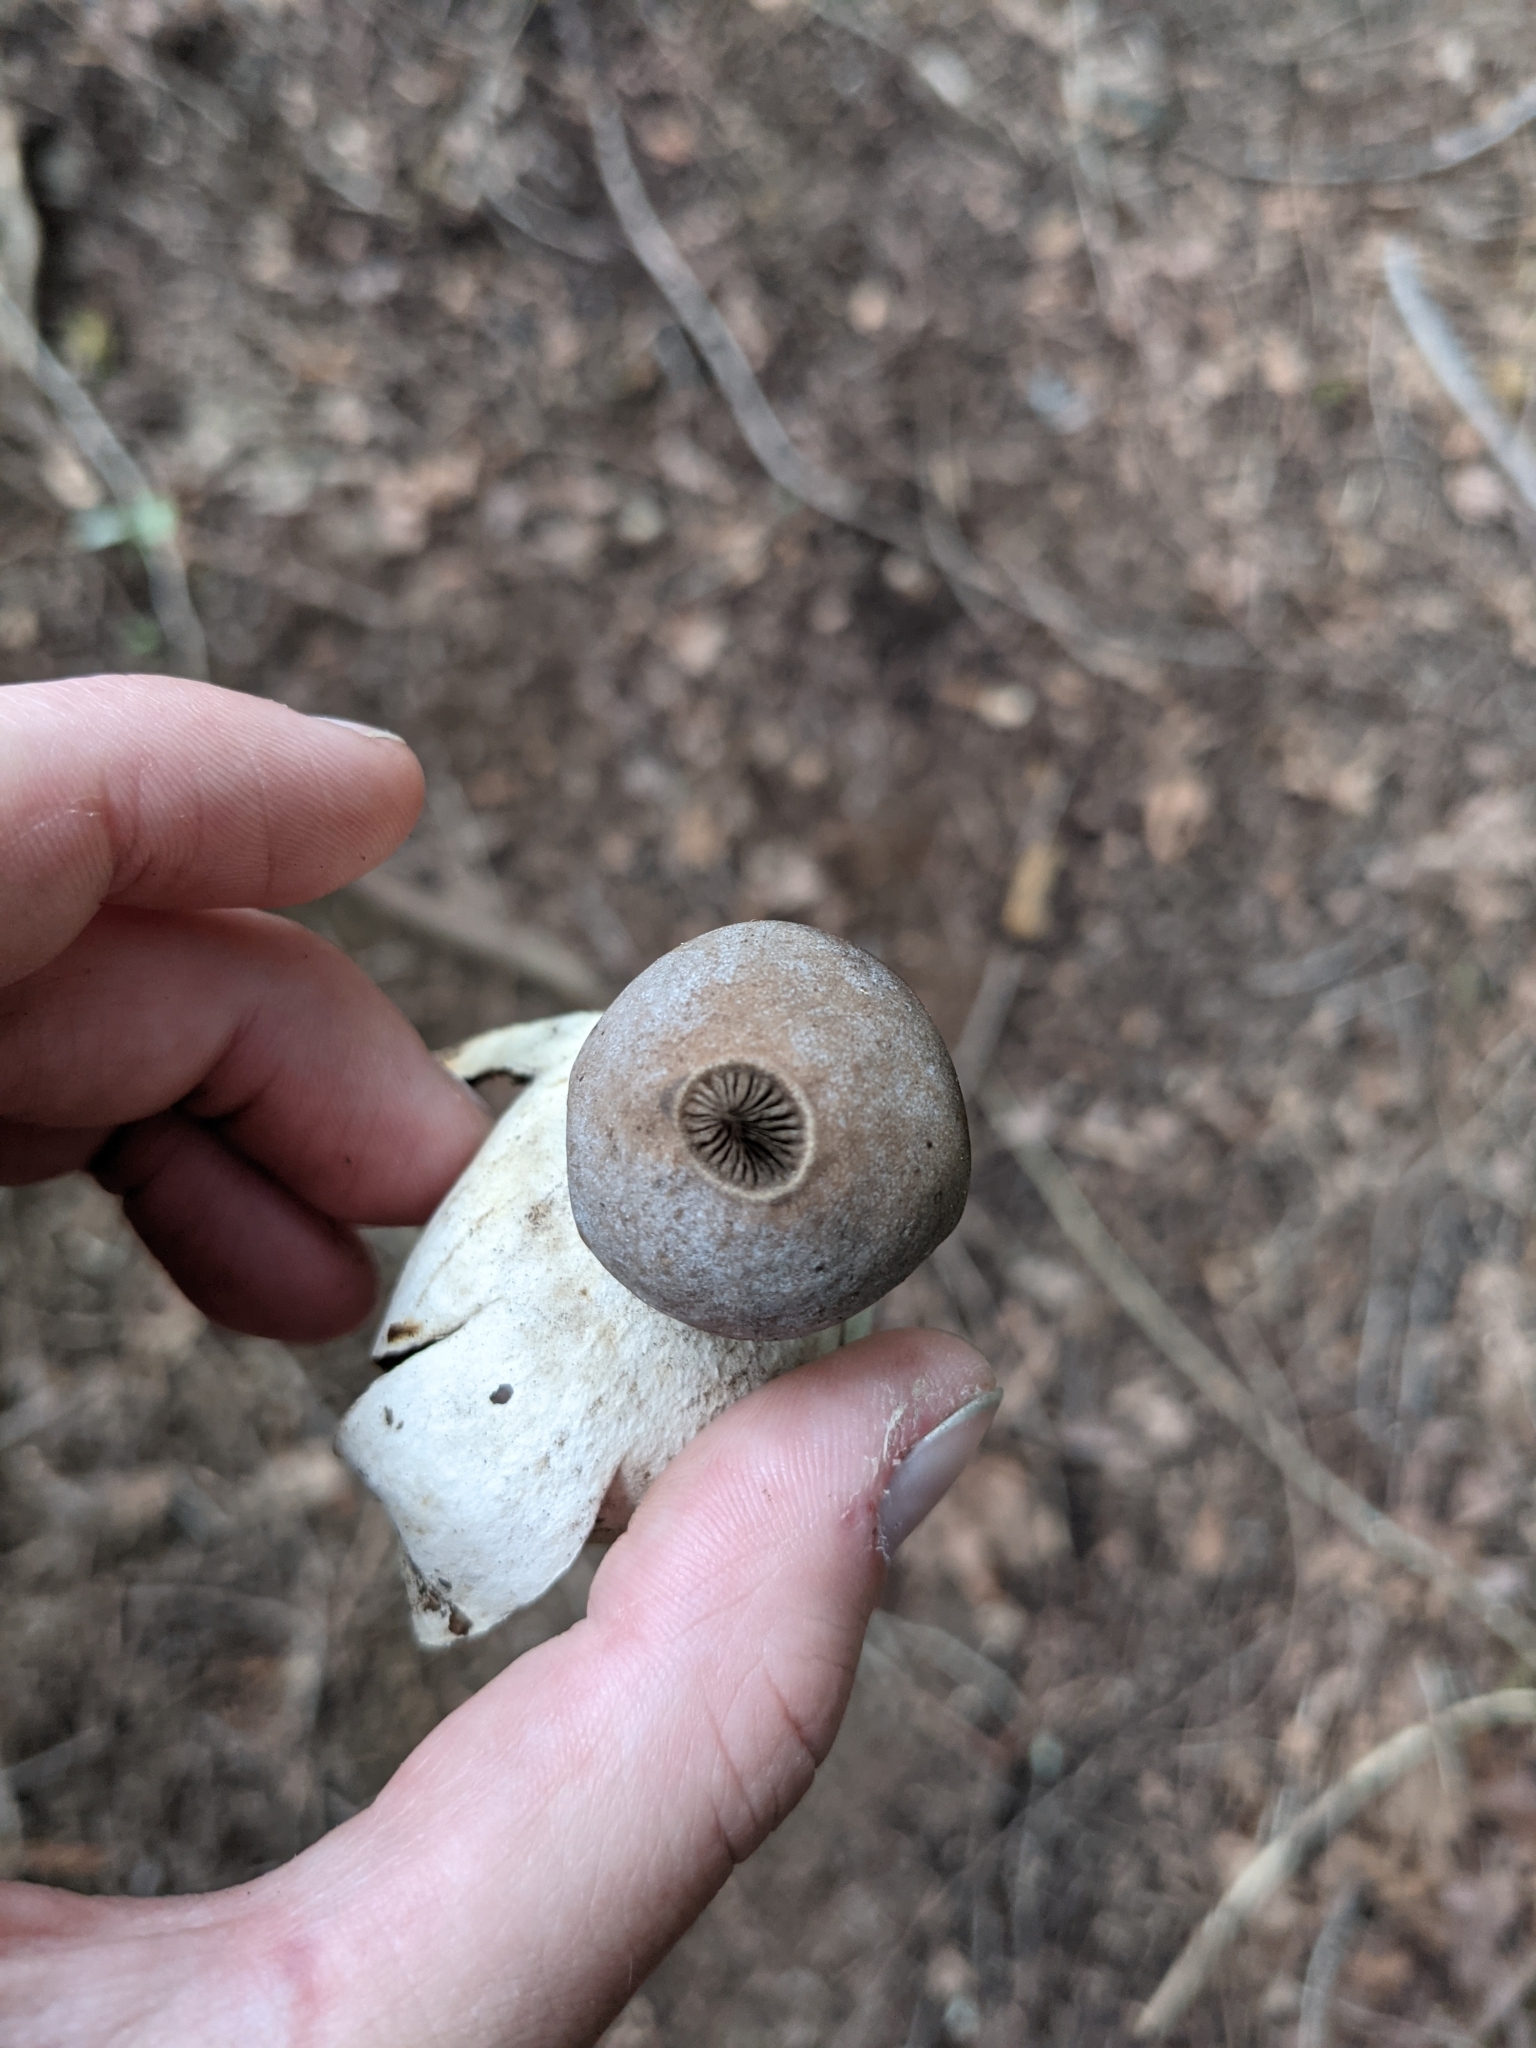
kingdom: Fungi
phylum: Basidiomycota
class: Agaricomycetes
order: Geastrales
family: Geastraceae
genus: Geastrum
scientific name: Geastrum saccatum
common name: Rounded earthstar
